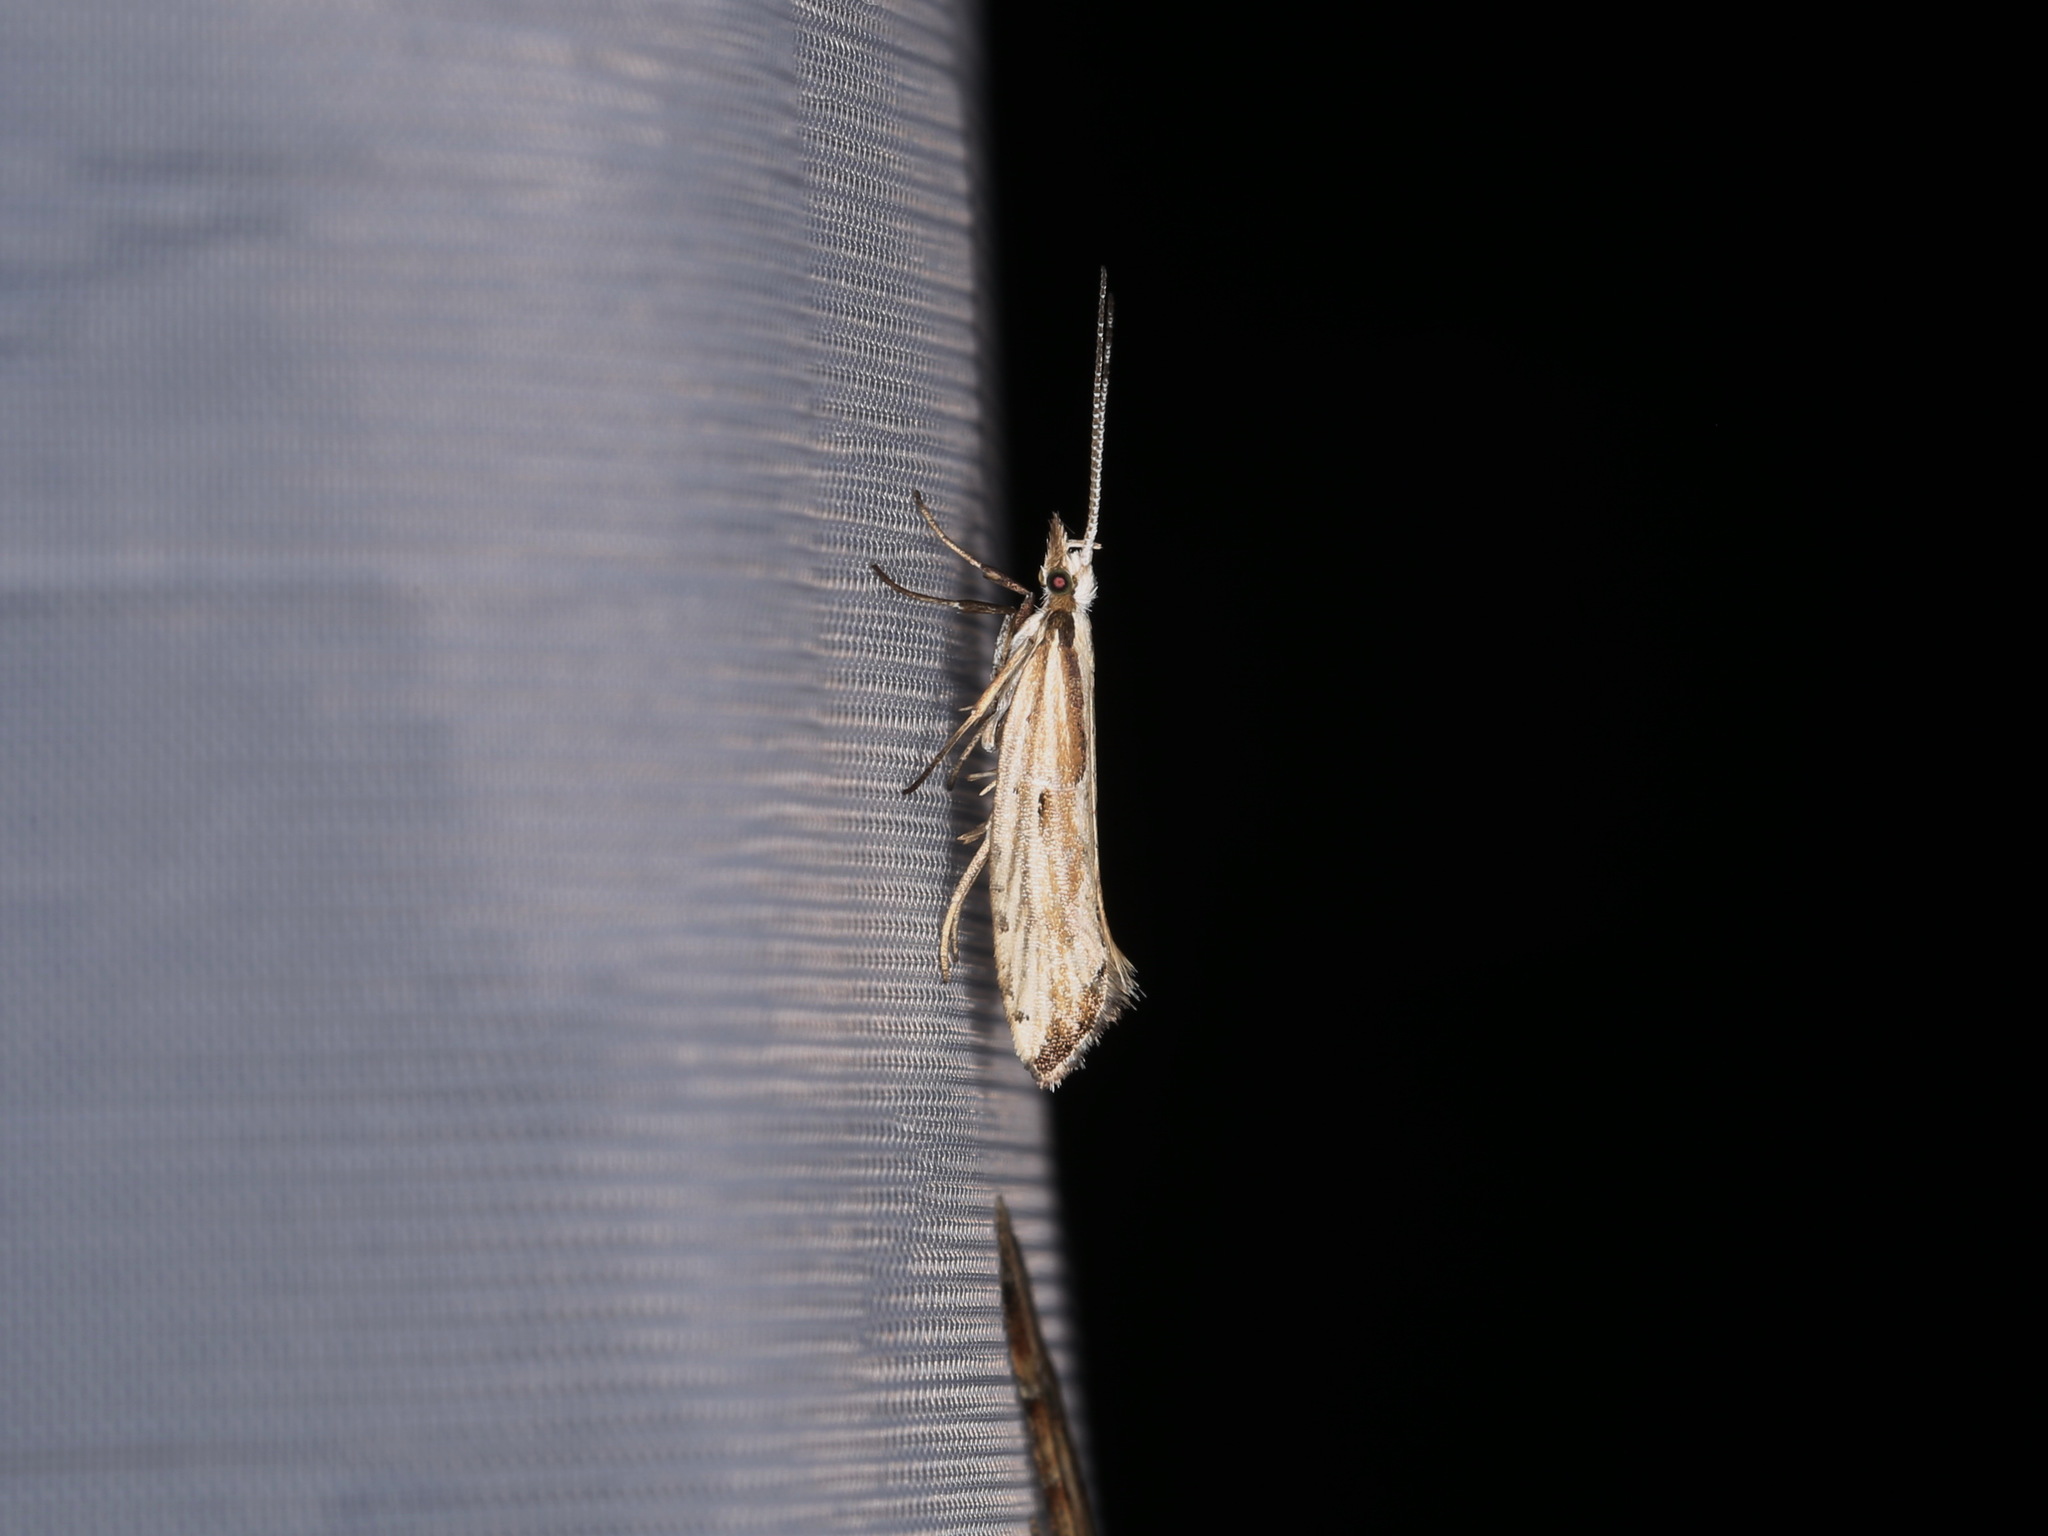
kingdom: Animalia
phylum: Arthropoda
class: Insecta
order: Lepidoptera
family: Plutellidae
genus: Plutella
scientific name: Plutella porrectella
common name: Dame's rocket moth
